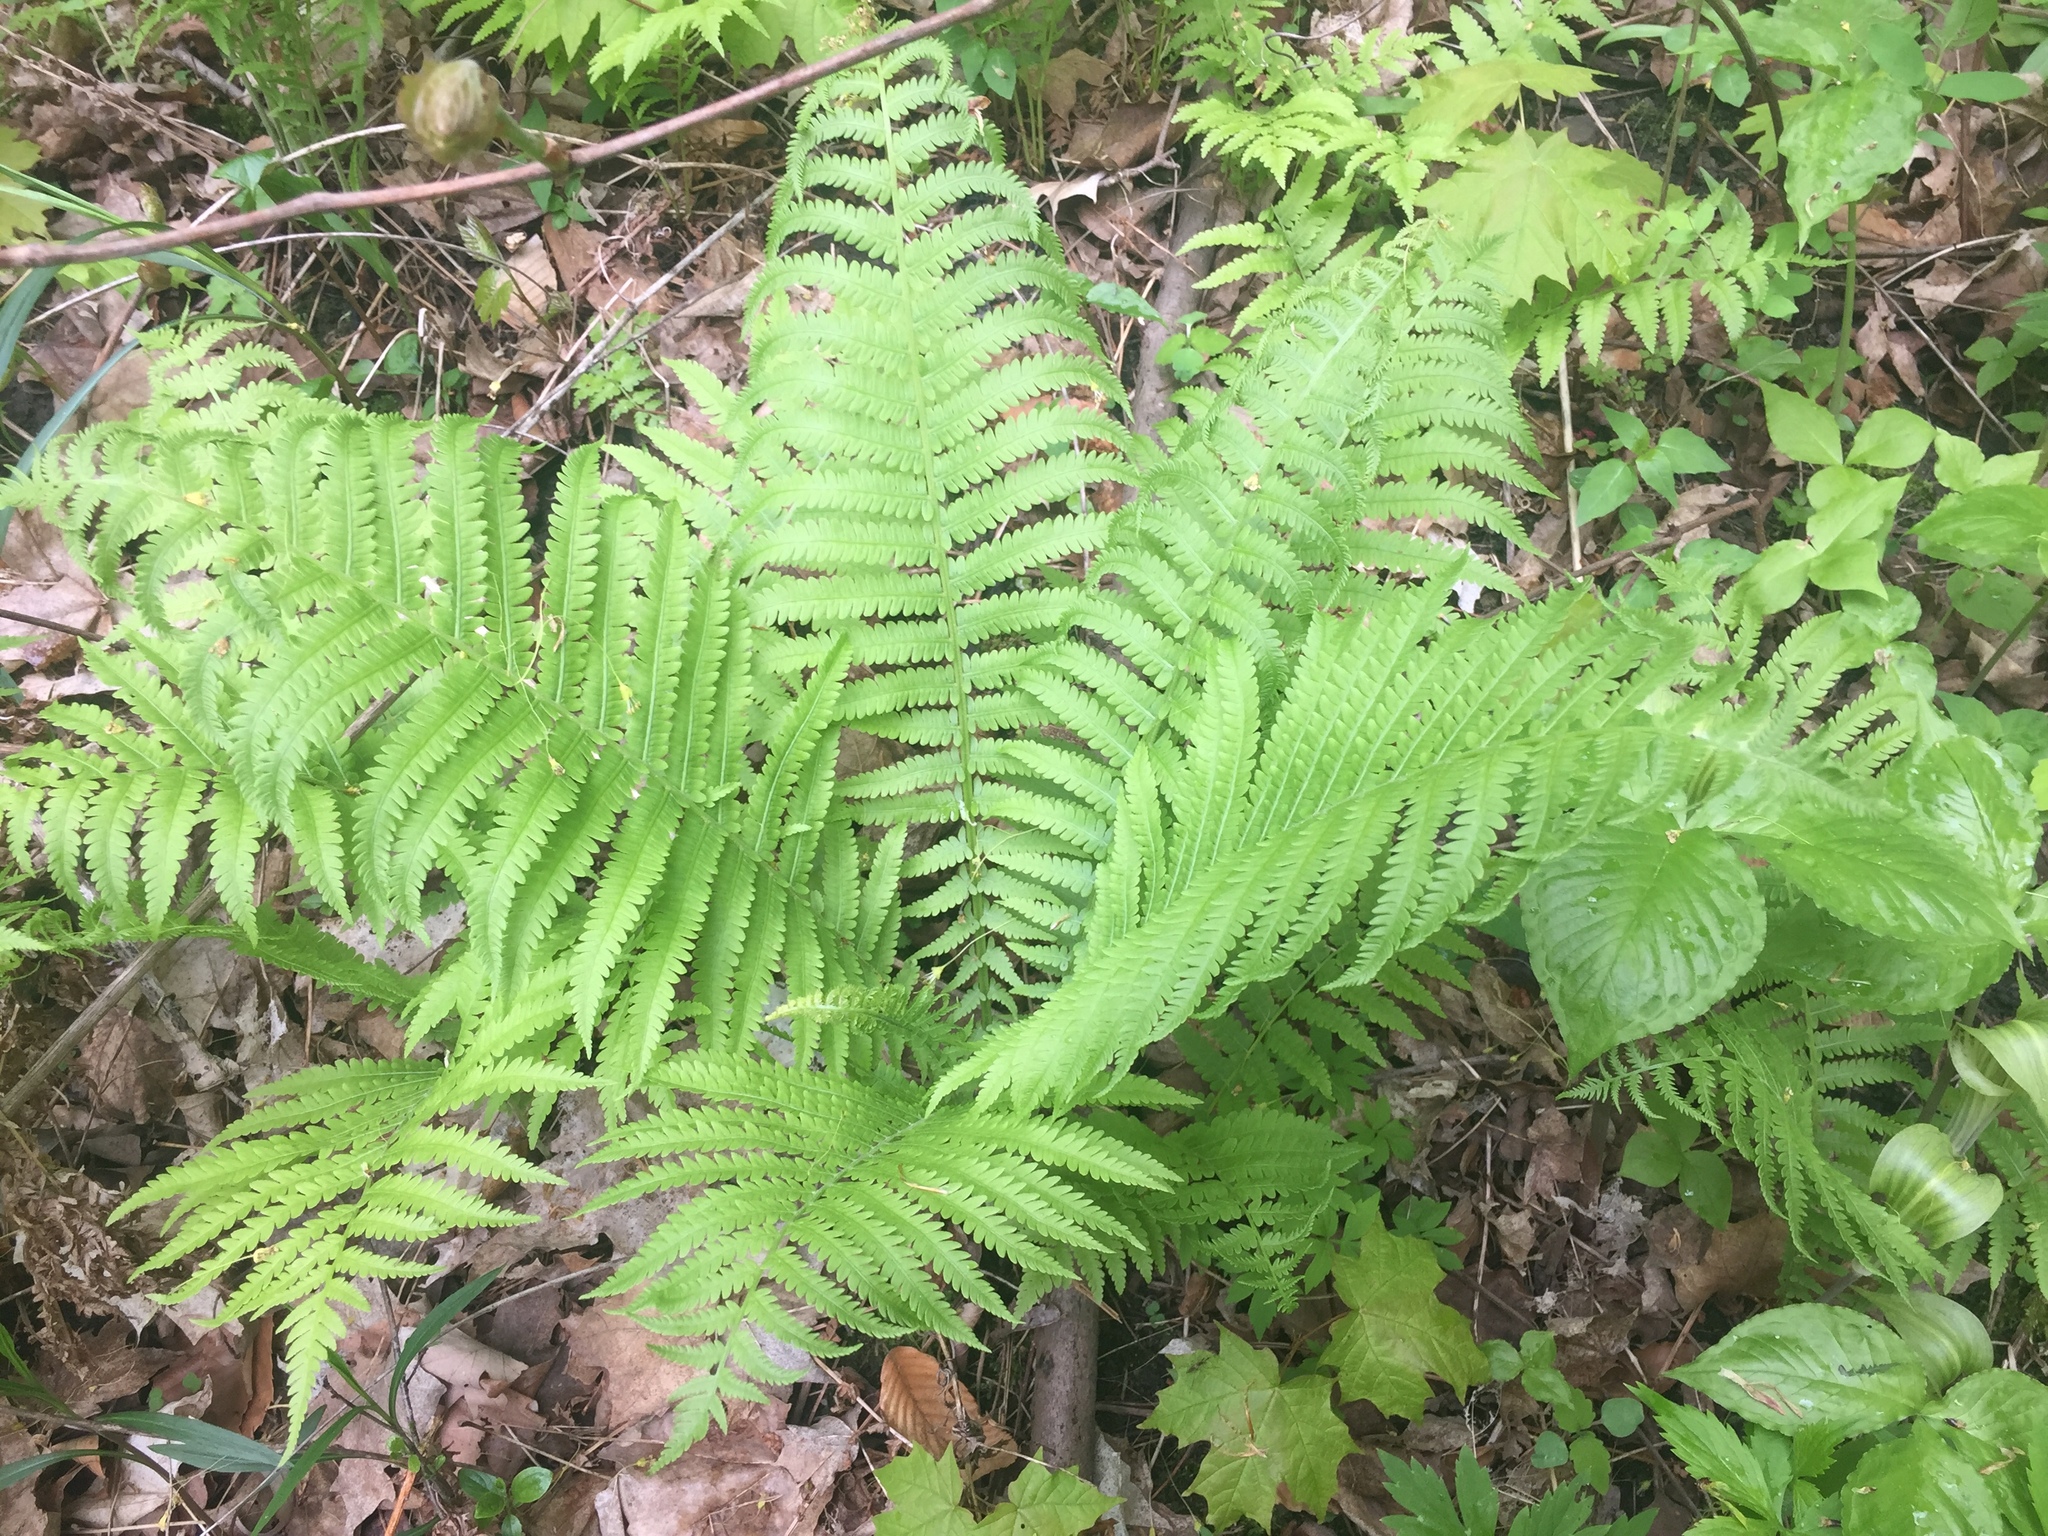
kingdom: Plantae
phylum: Tracheophyta
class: Polypodiopsida
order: Polypodiales
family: Onocleaceae
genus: Matteuccia
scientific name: Matteuccia struthiopteris
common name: Ostrich fern
